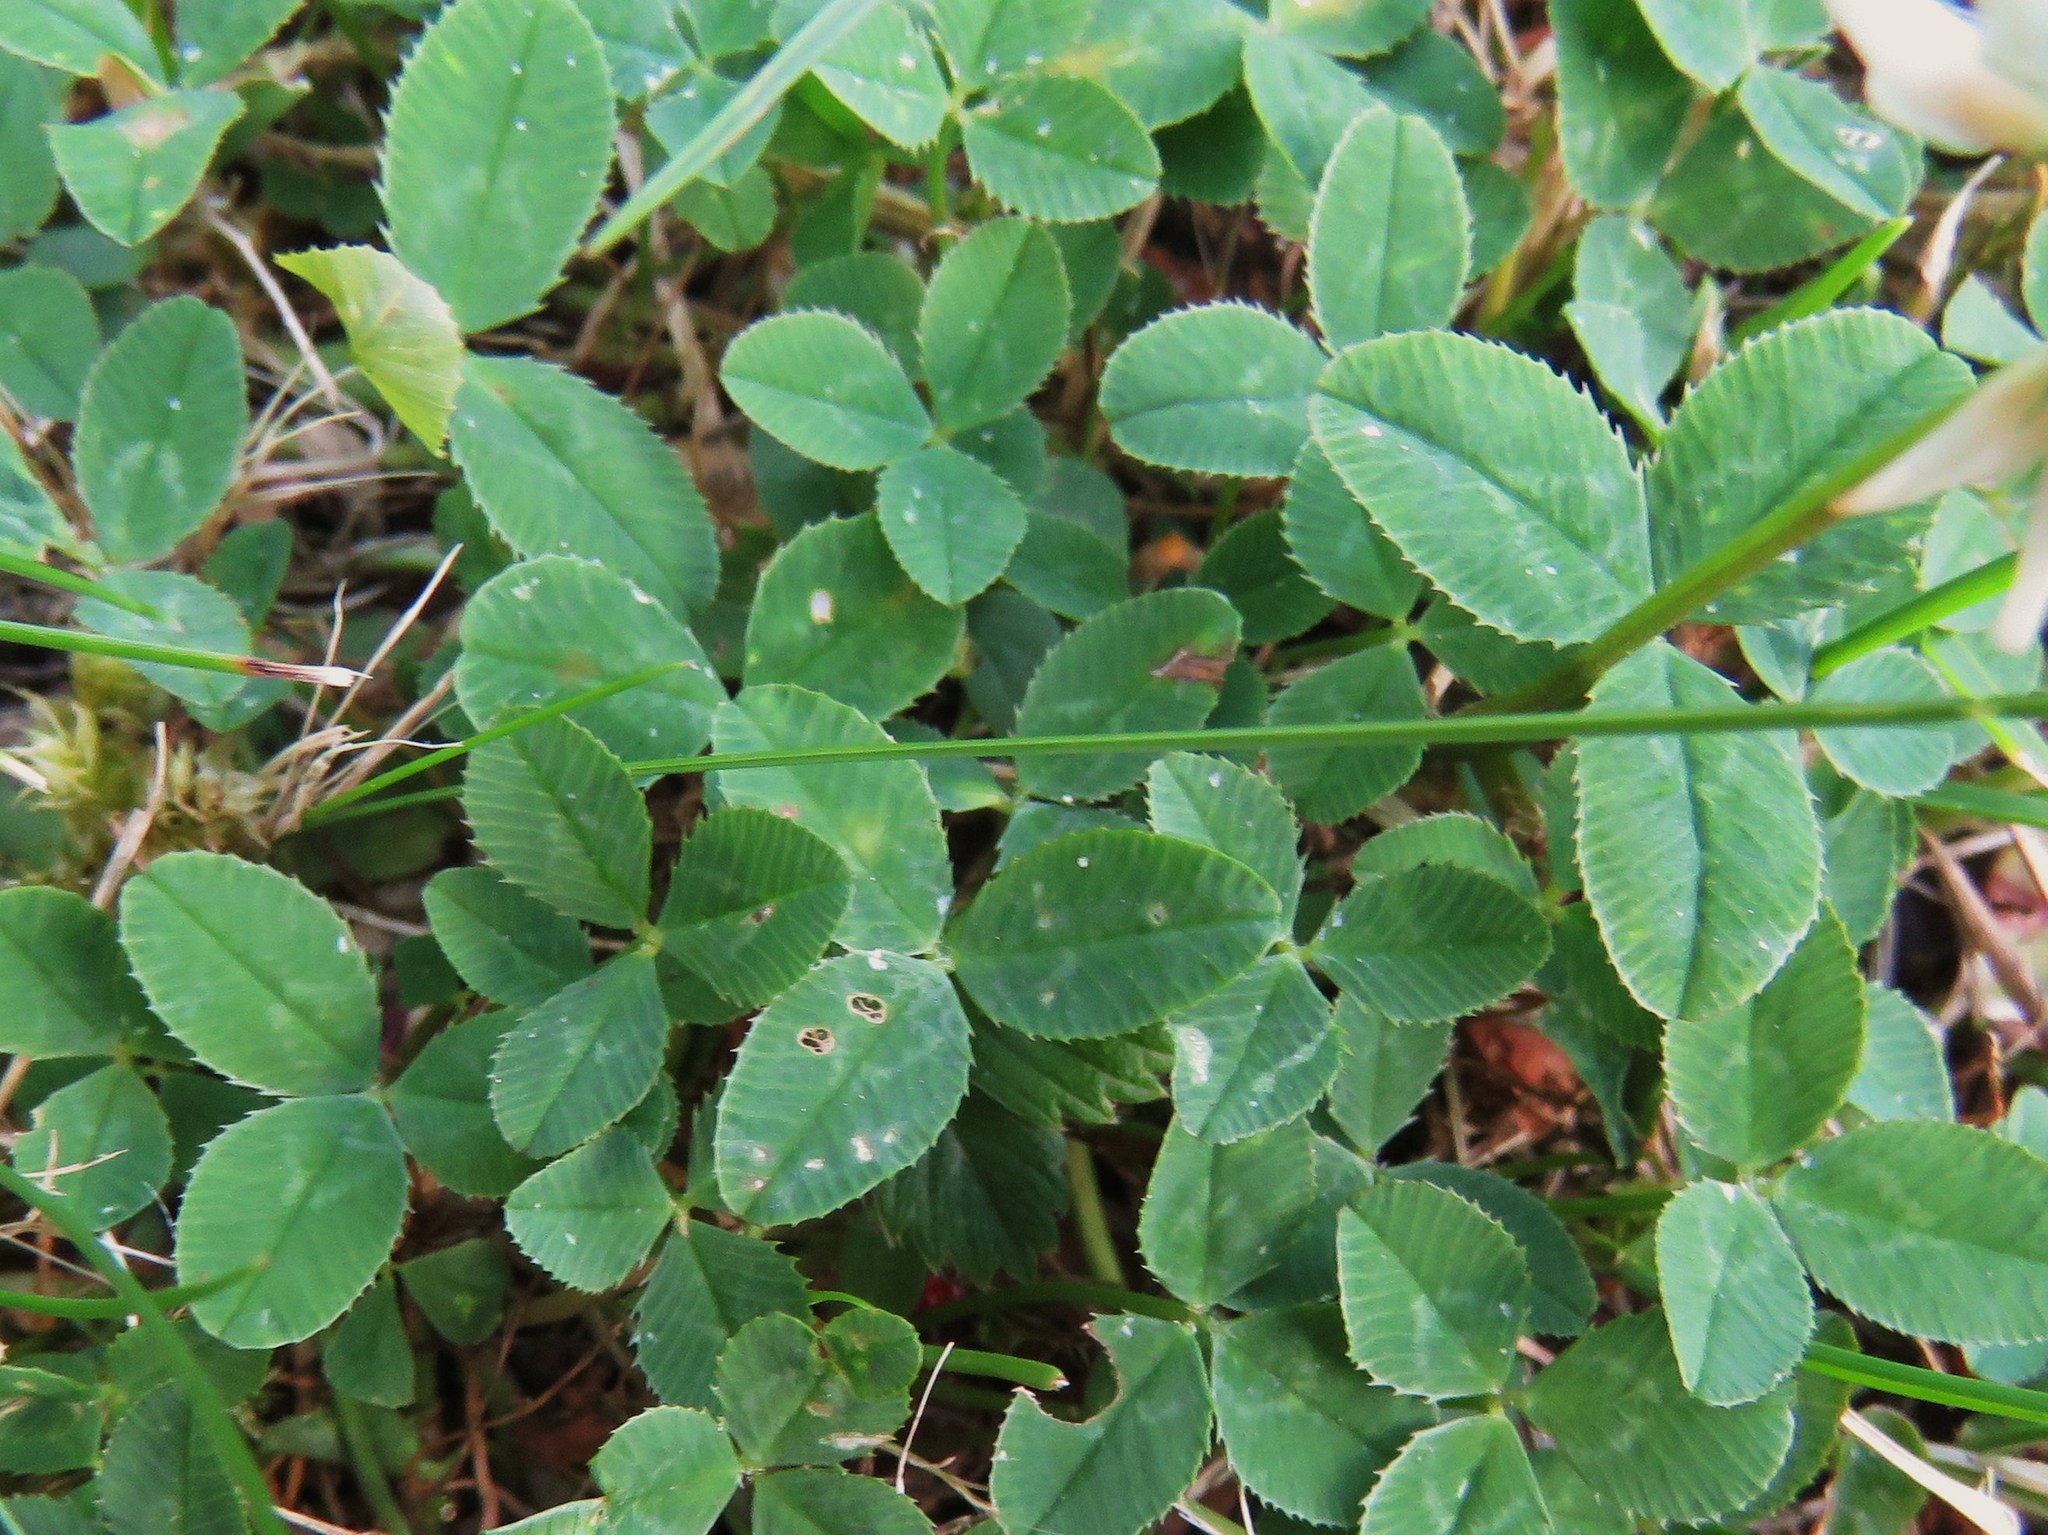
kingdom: Plantae
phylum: Tracheophyta
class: Magnoliopsida
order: Fabales
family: Fabaceae
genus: Trifolium
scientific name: Trifolium repens
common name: White clover
